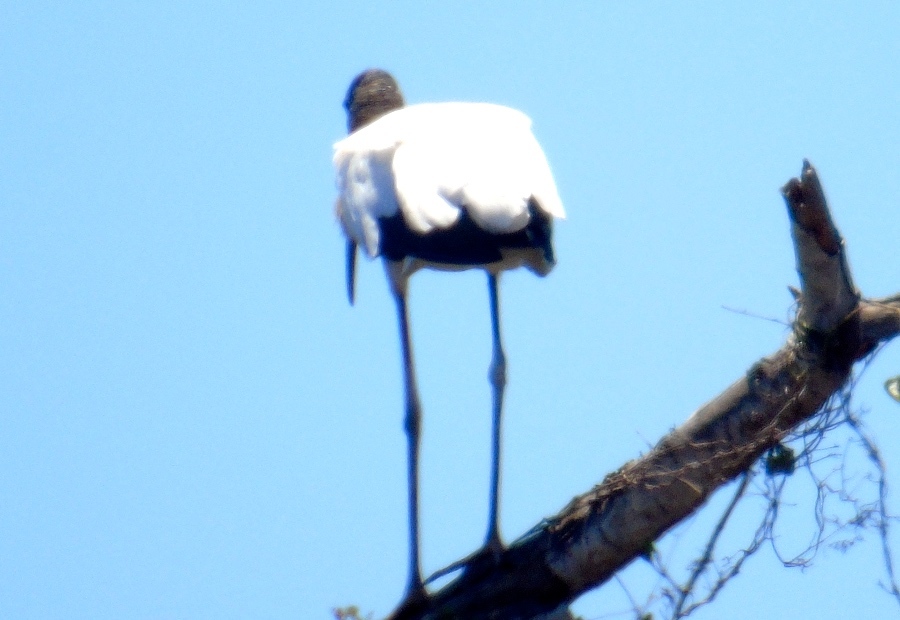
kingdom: Animalia
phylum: Chordata
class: Aves
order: Ciconiiformes
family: Ciconiidae
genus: Mycteria
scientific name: Mycteria americana
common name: Wood stork
